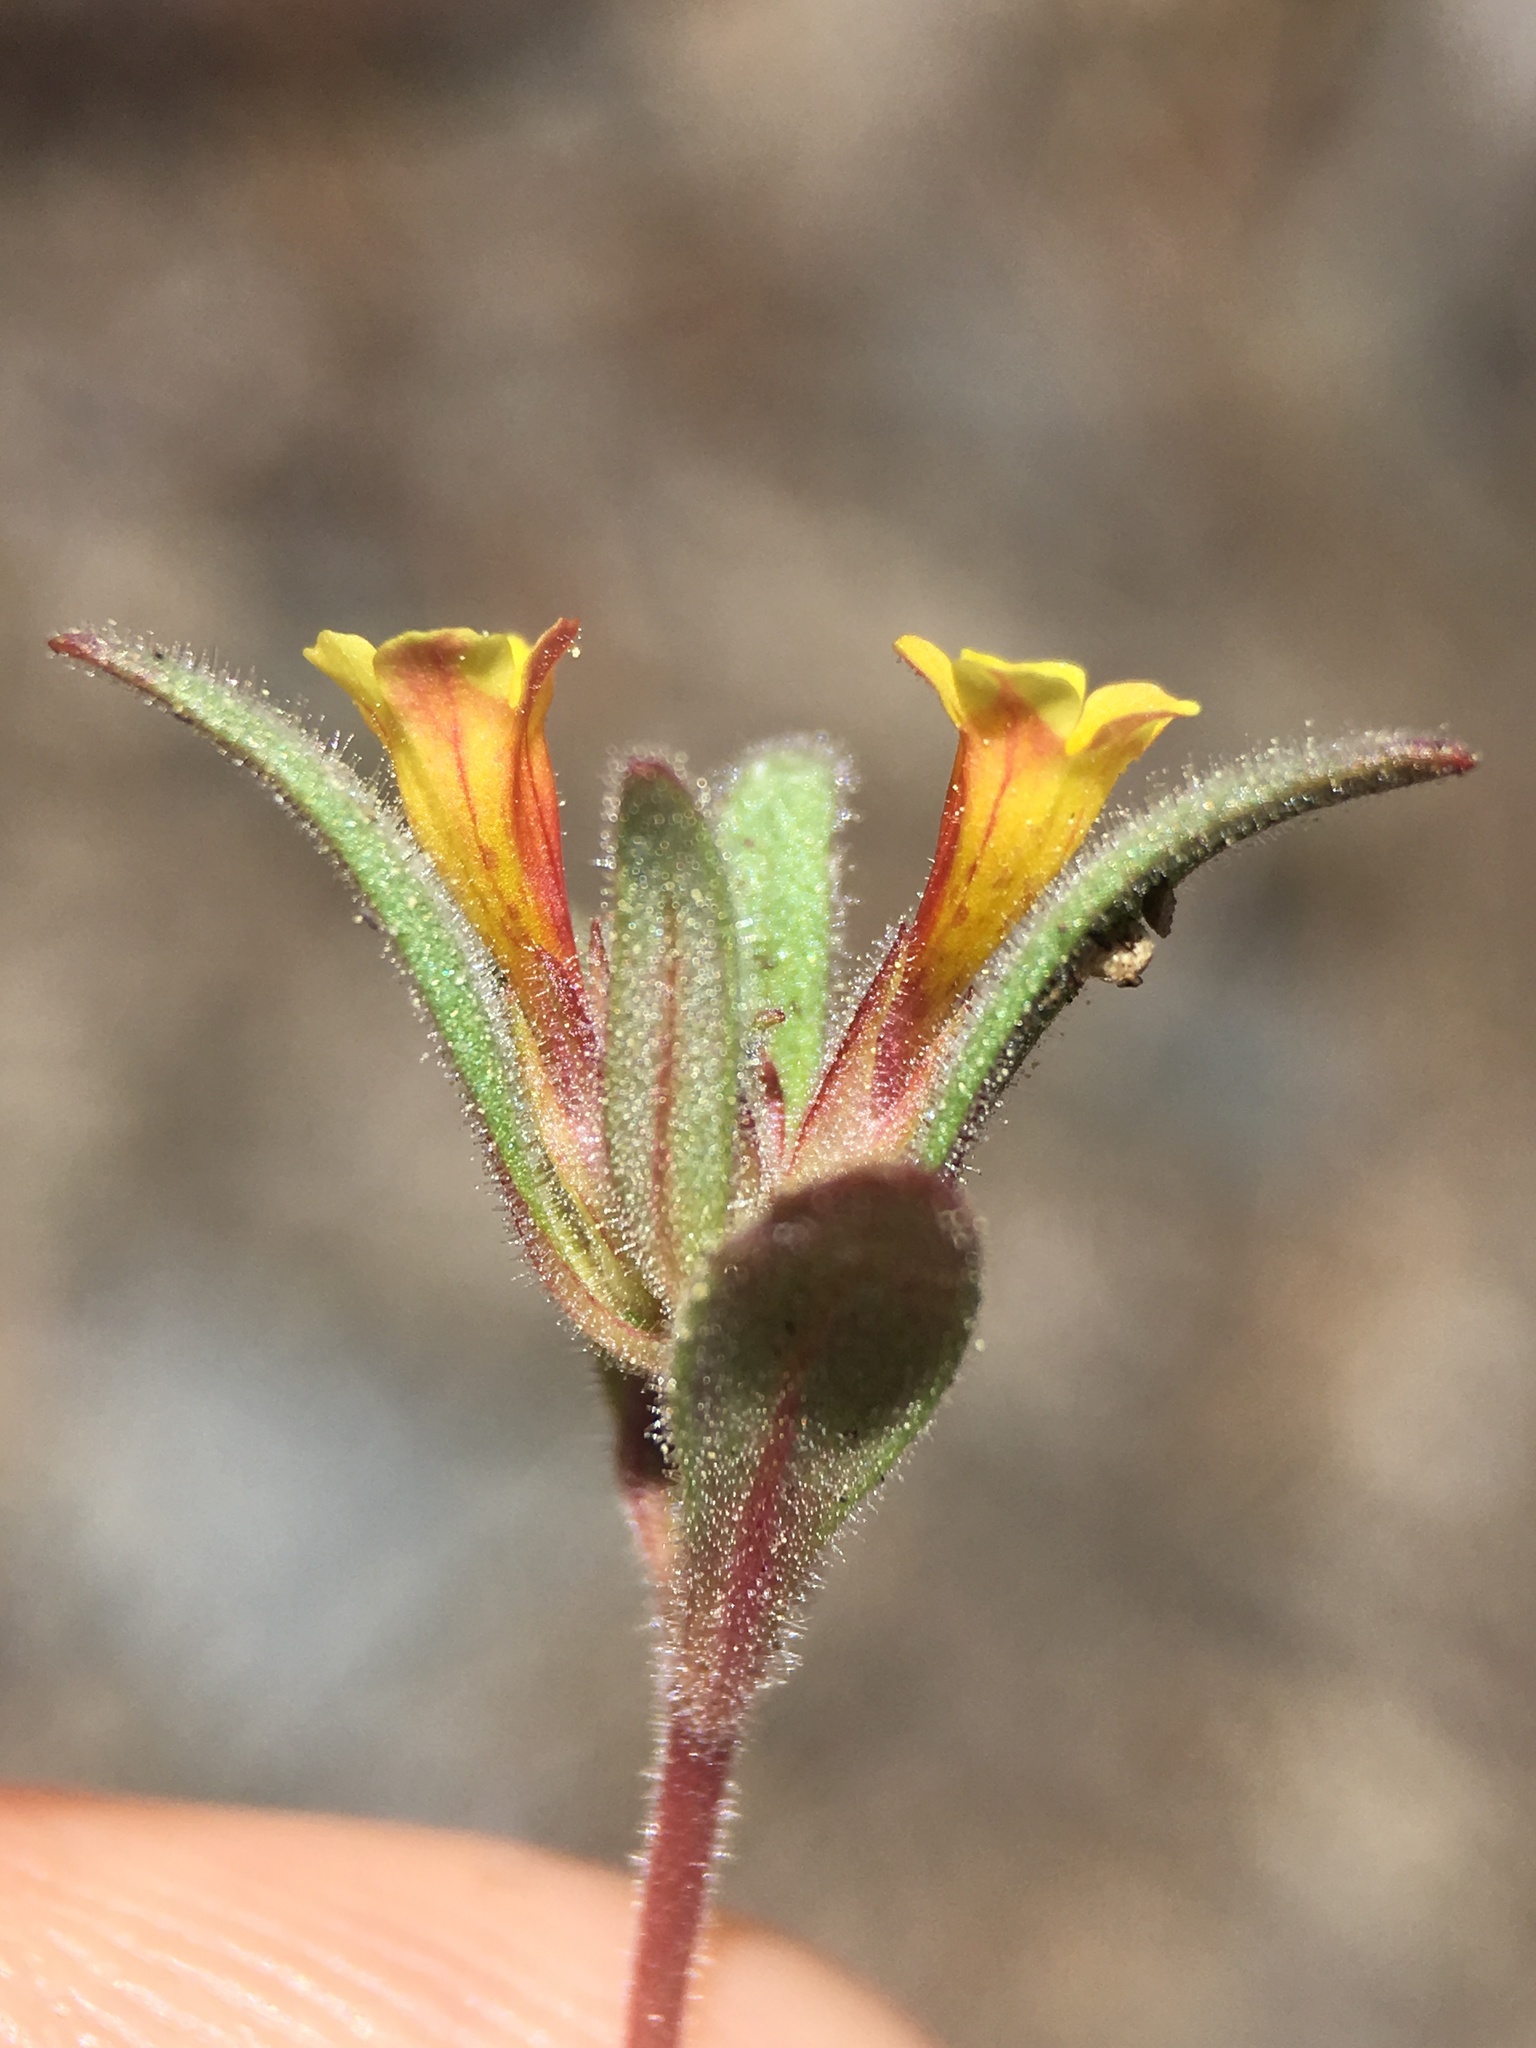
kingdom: Plantae
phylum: Tracheophyta
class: Magnoliopsida
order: Lamiales
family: Phrymaceae
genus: Diplacus
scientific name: Diplacus leptaleus
